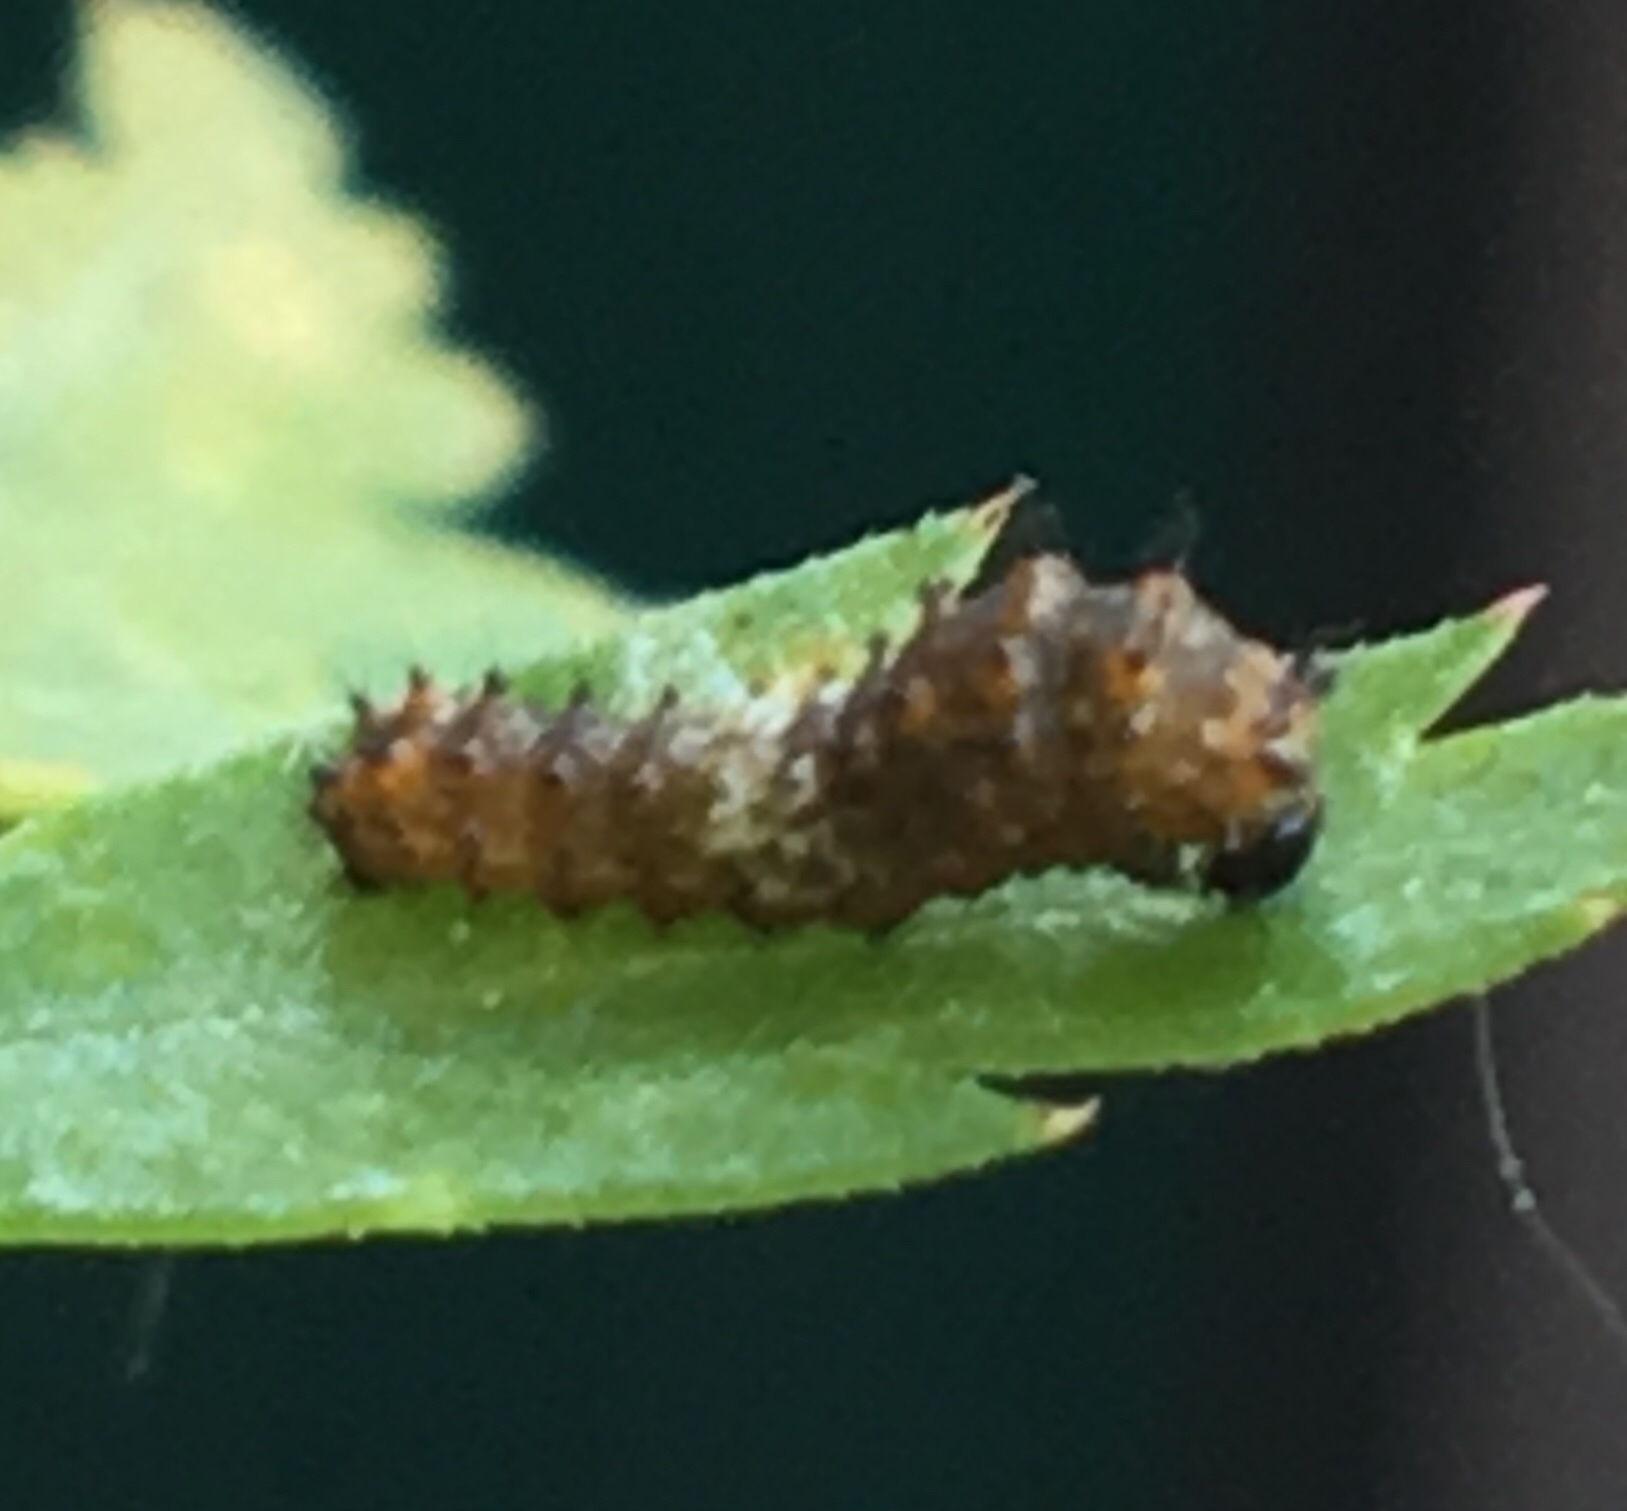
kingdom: Animalia
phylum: Arthropoda
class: Insecta
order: Lepidoptera
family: Papilionidae
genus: Papilio
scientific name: Papilio polyxenes
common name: Black swallowtail
